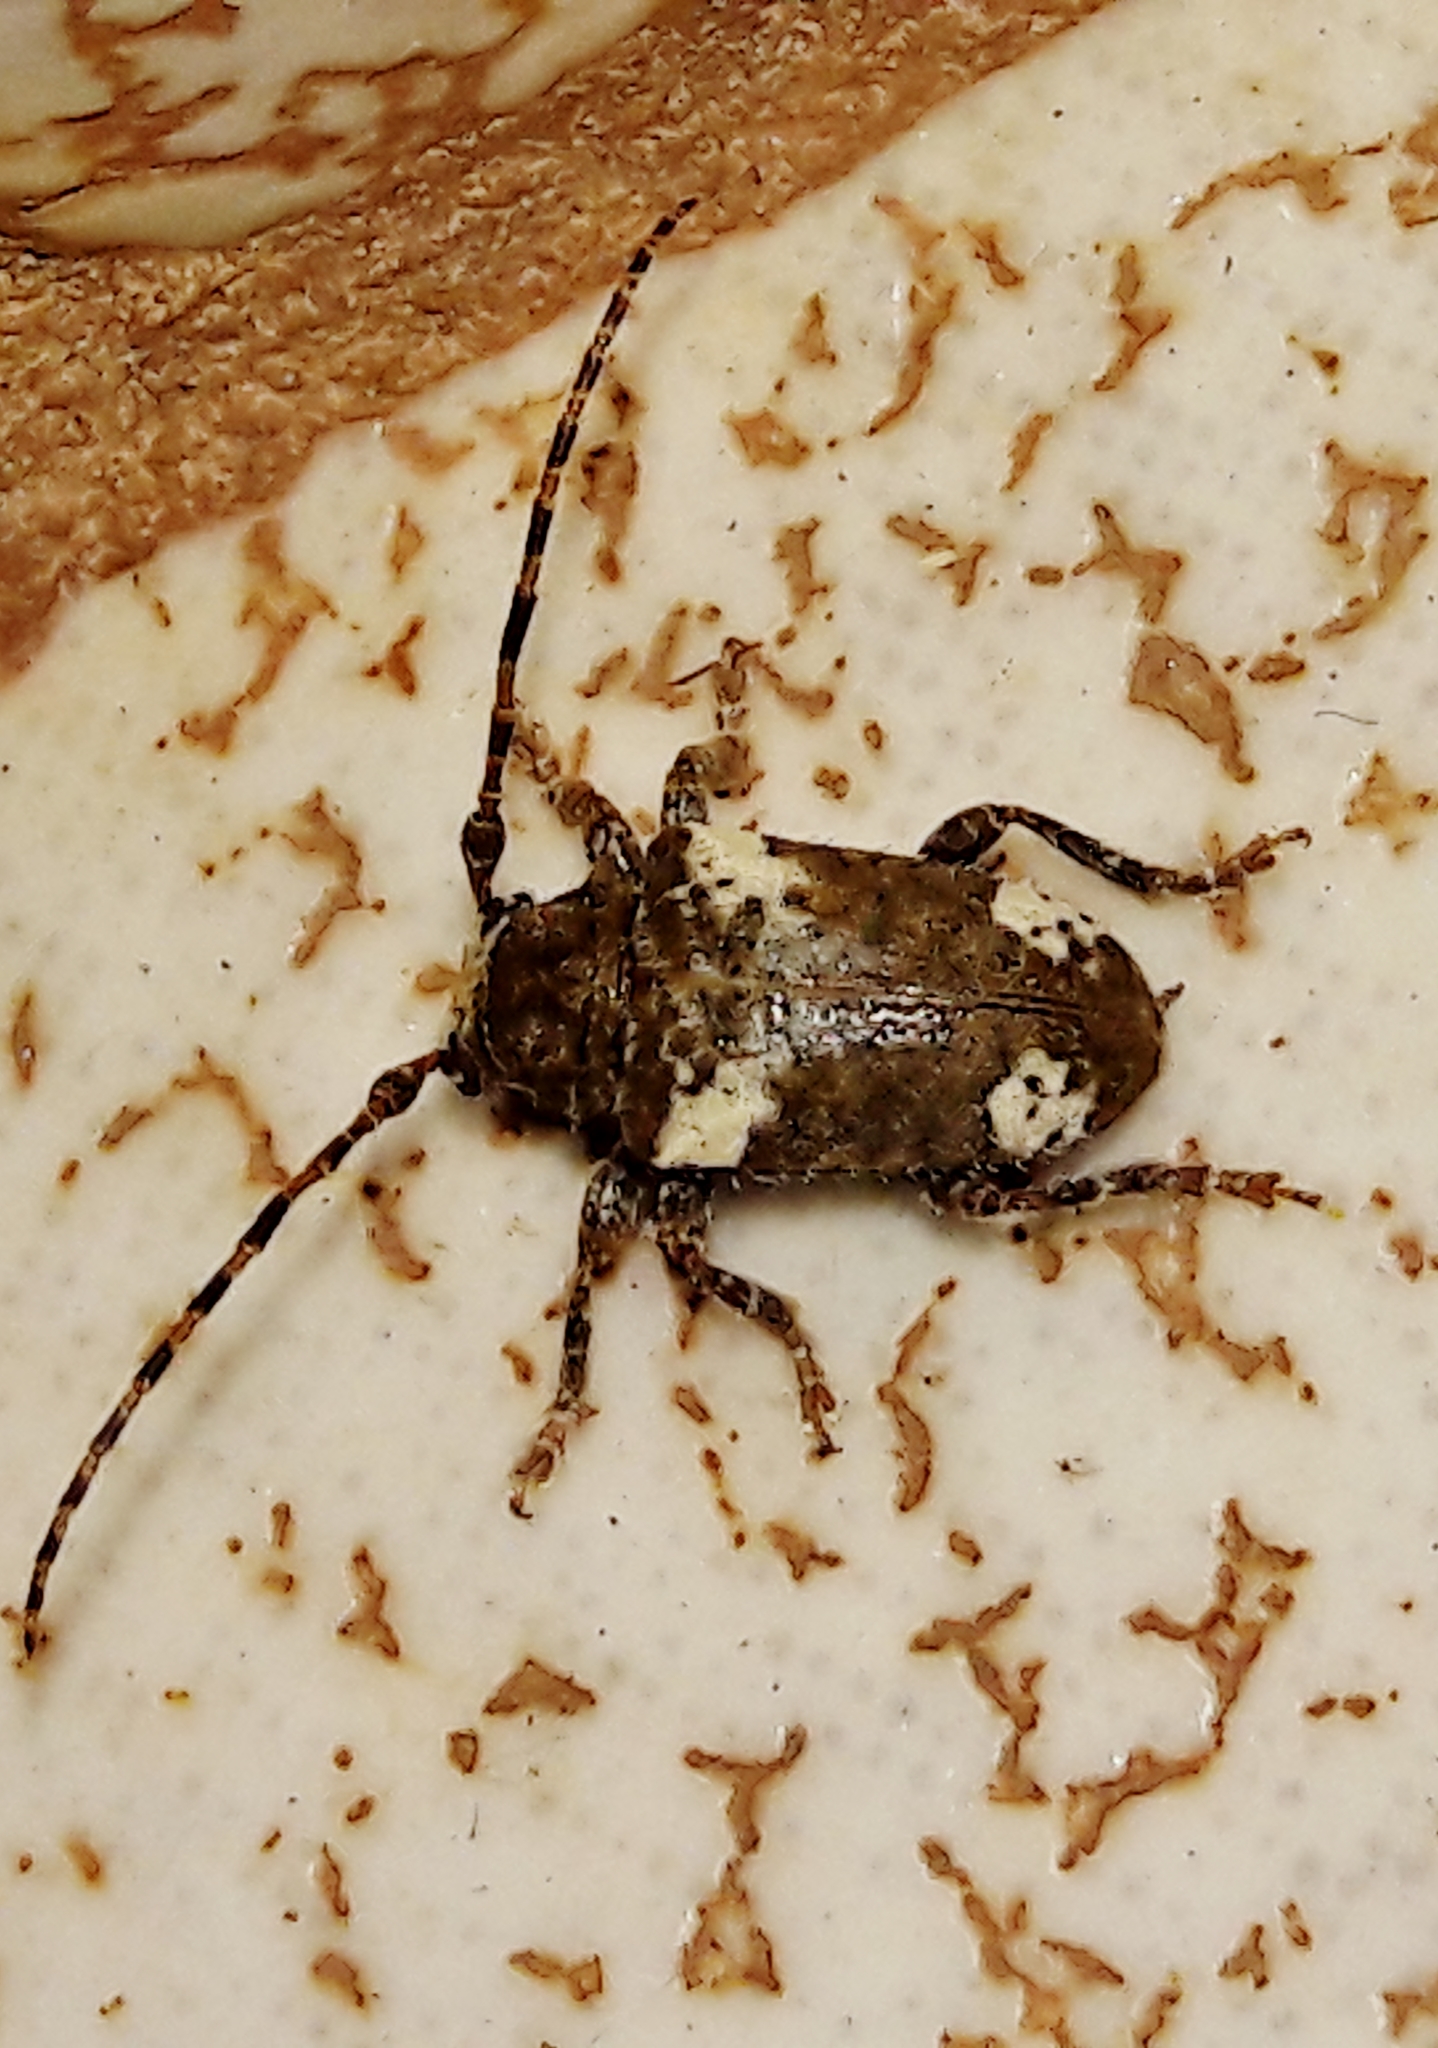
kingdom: Animalia
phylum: Arthropoda
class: Insecta
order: Coleoptera
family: Cerambycidae
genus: Aerenea
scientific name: Aerenea quadriplagiata
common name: Amaranth stem borer
